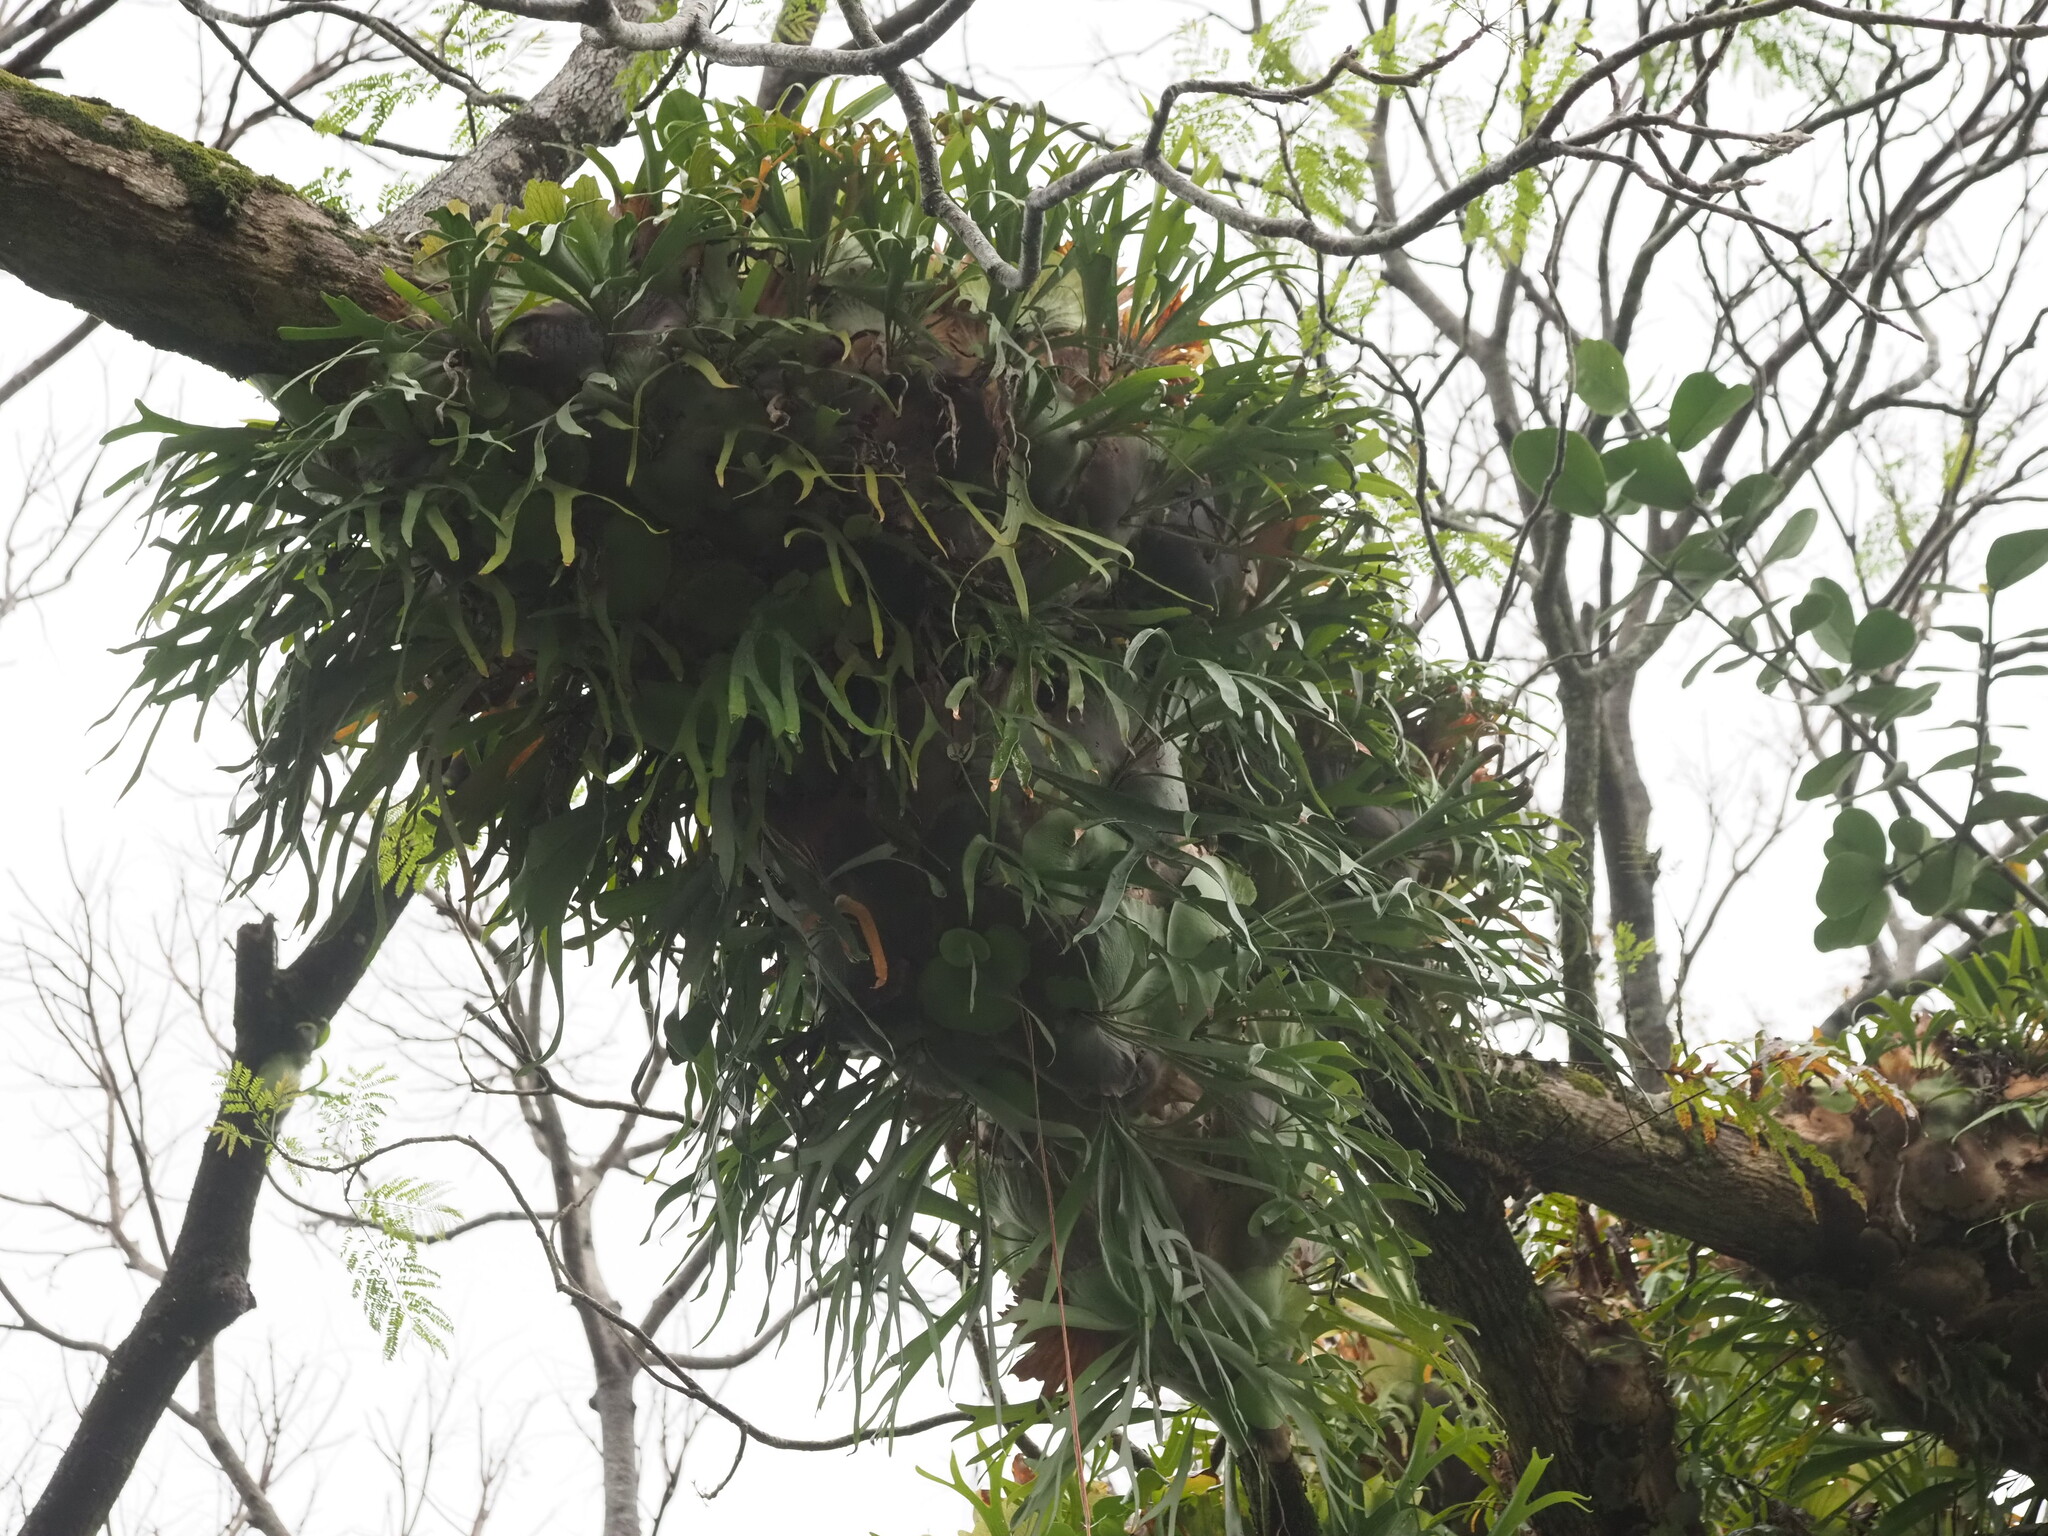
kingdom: Plantae
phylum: Tracheophyta
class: Polypodiopsida
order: Polypodiales
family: Polypodiaceae
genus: Platycerium
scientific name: Platycerium bifurcatum
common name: Elkhorn fern
